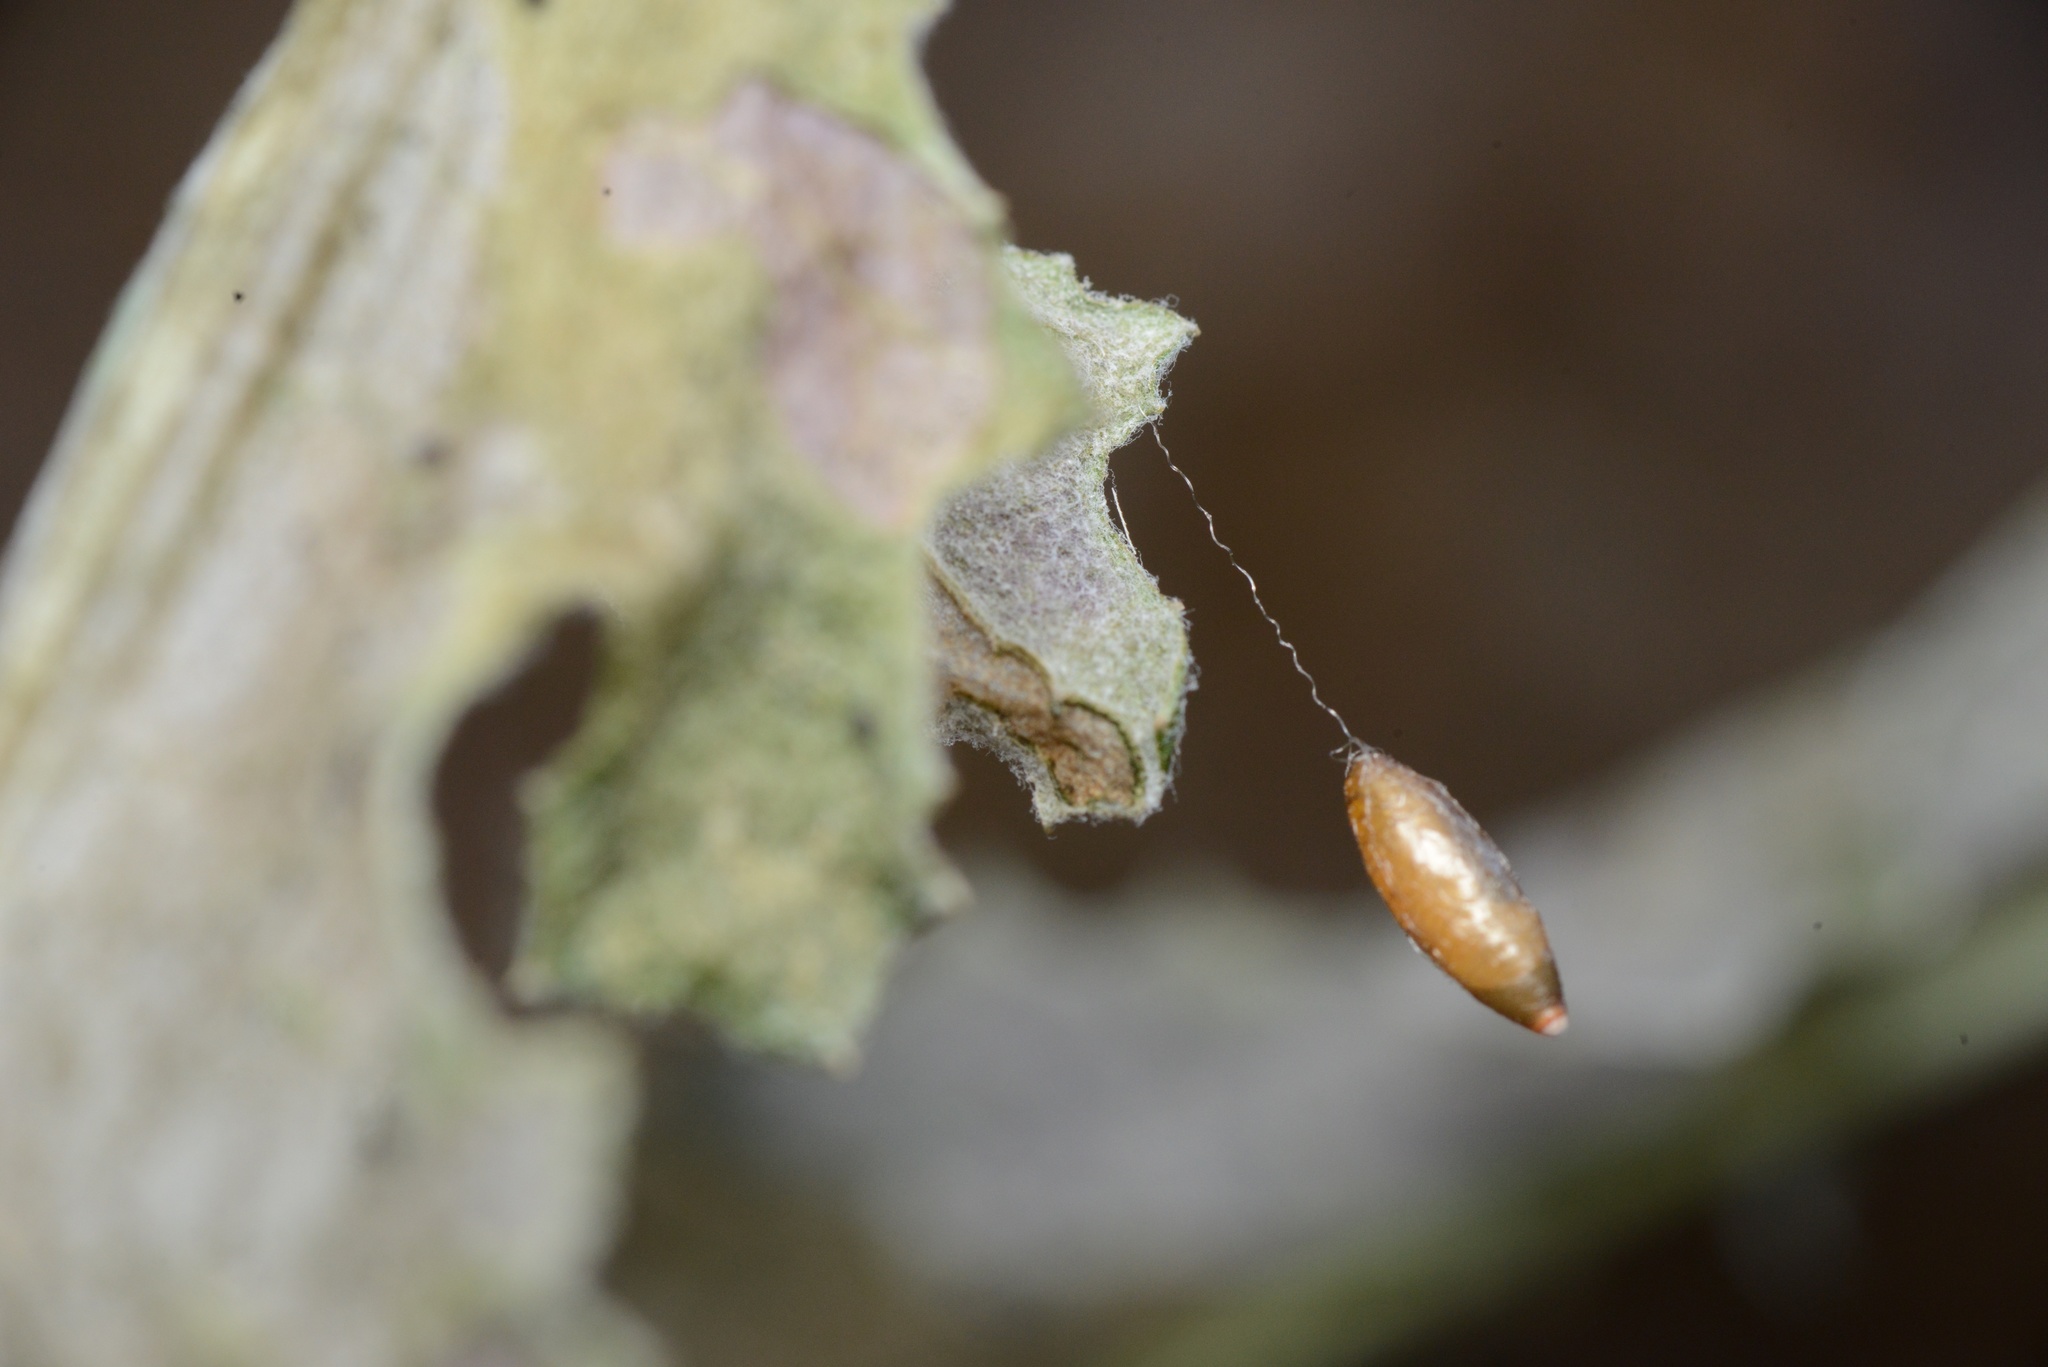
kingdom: Animalia
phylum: Arthropoda
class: Insecta
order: Hymenoptera
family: Braconidae
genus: Meteorus
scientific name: Meteorus pulchricornis
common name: Braconid wasp
